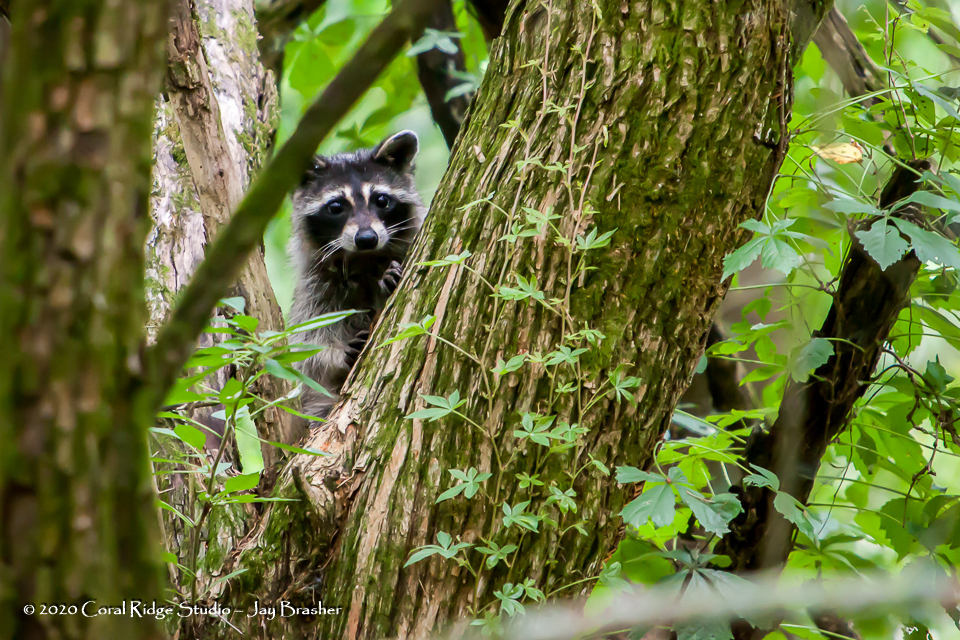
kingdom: Animalia
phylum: Chordata
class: Mammalia
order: Carnivora
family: Procyonidae
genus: Procyon
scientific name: Procyon lotor
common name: Raccoon
